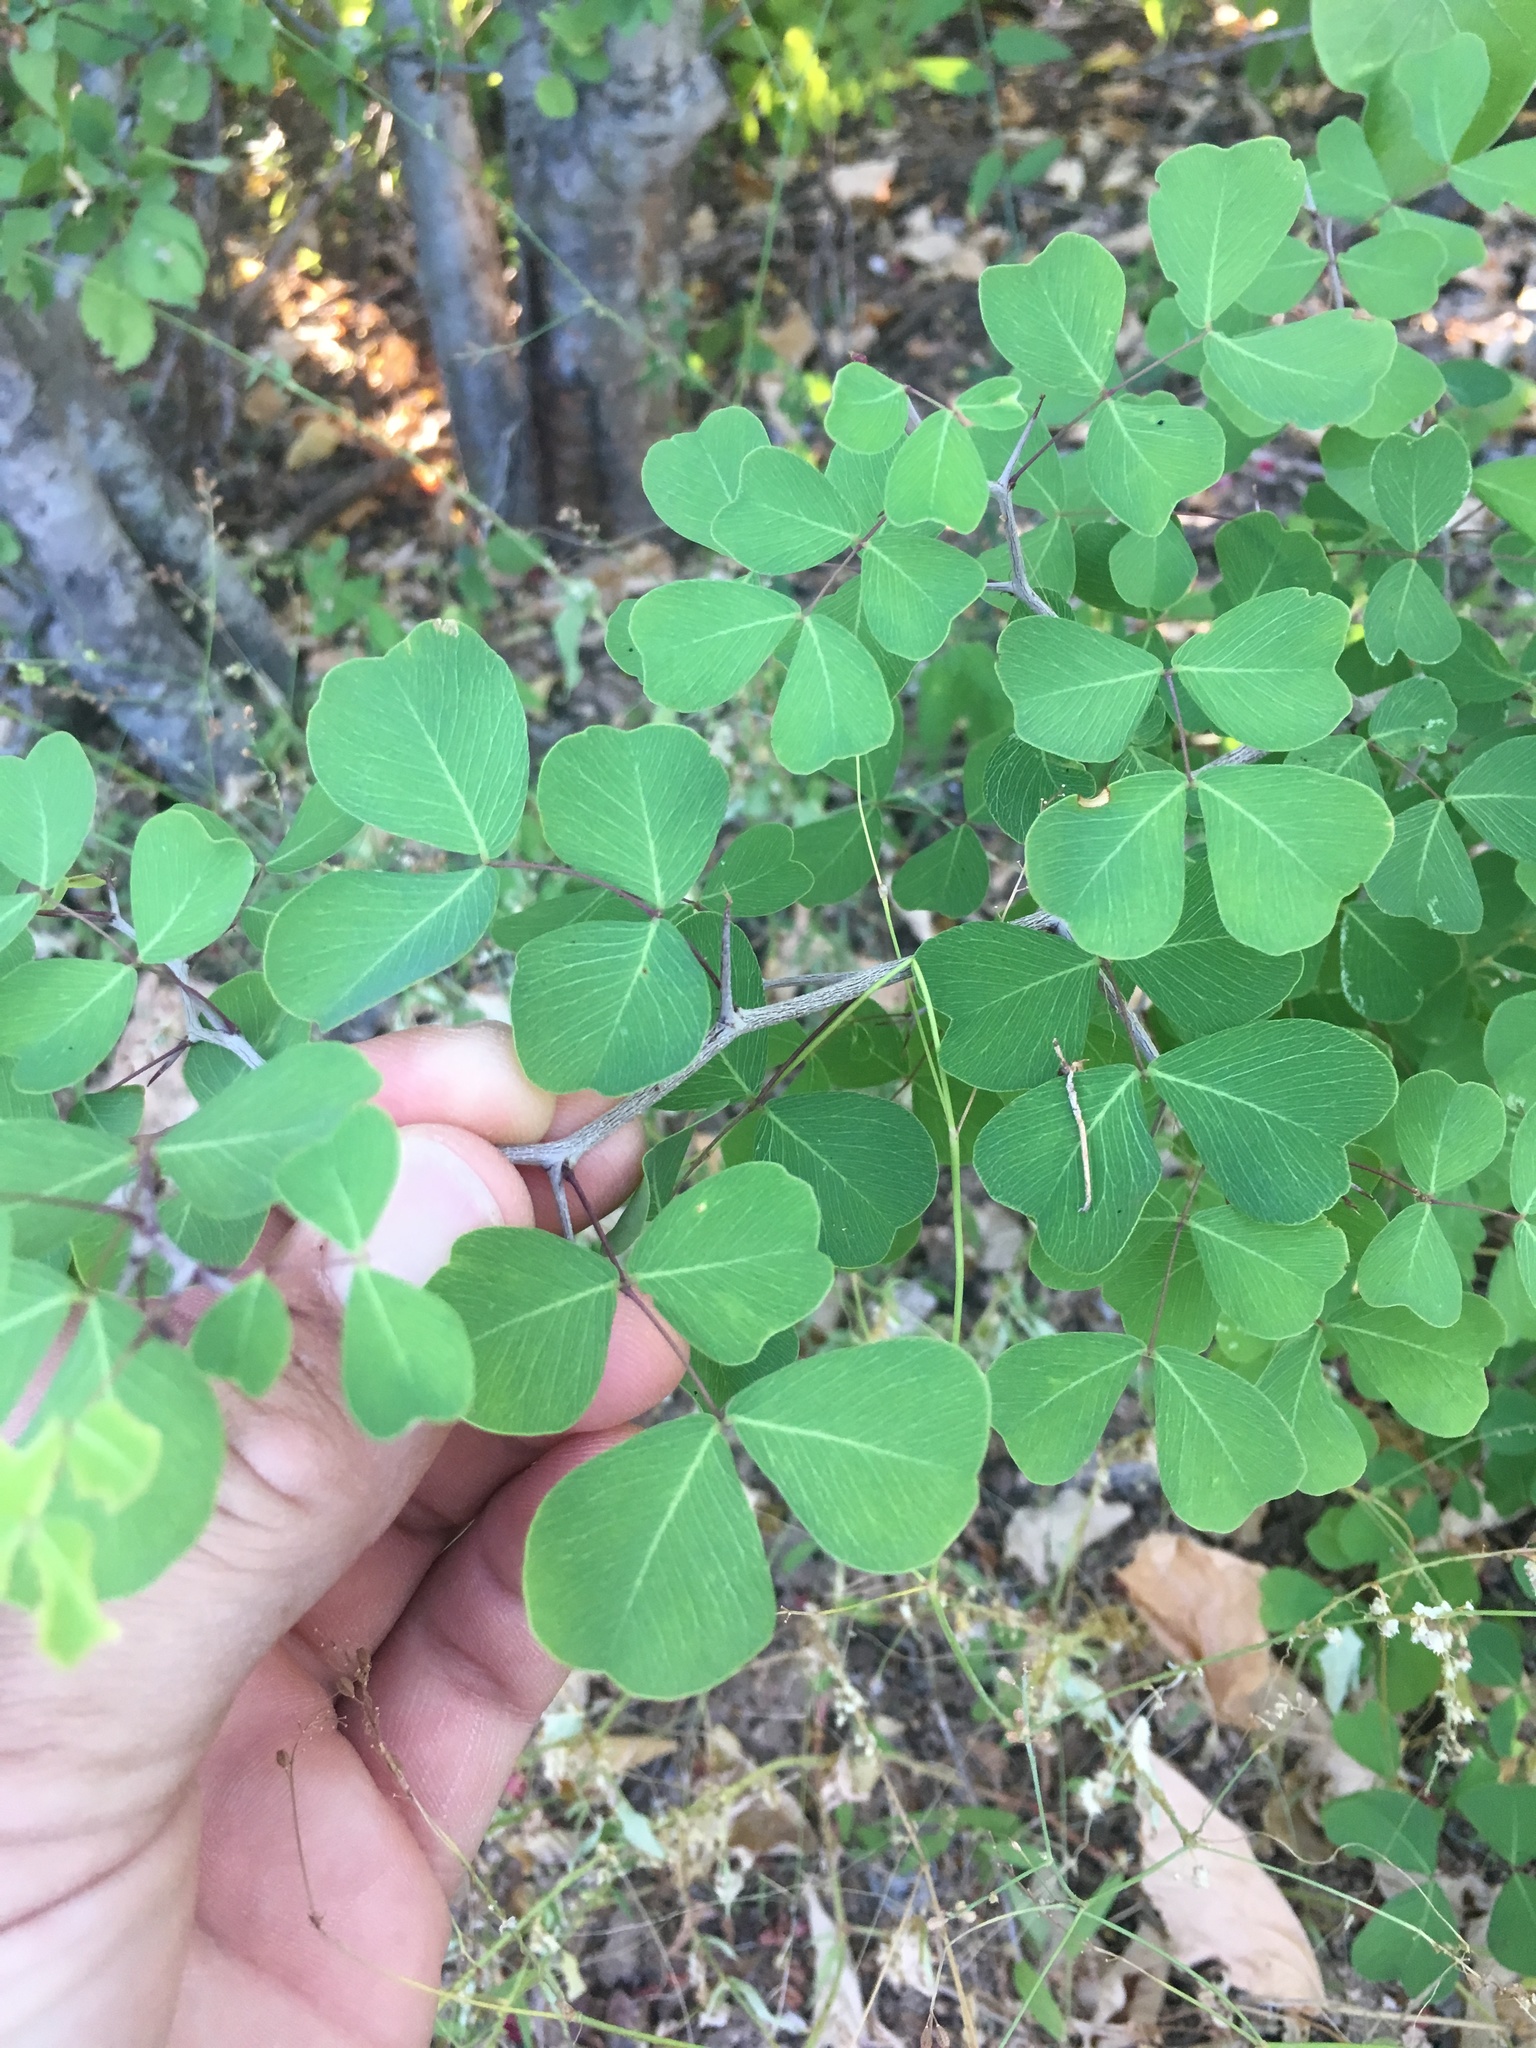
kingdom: Plantae
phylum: Tracheophyta
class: Magnoliopsida
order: Fabales
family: Fabaceae
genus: Haematoxylum
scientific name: Haematoxylum brasiletto
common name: Peachwood
